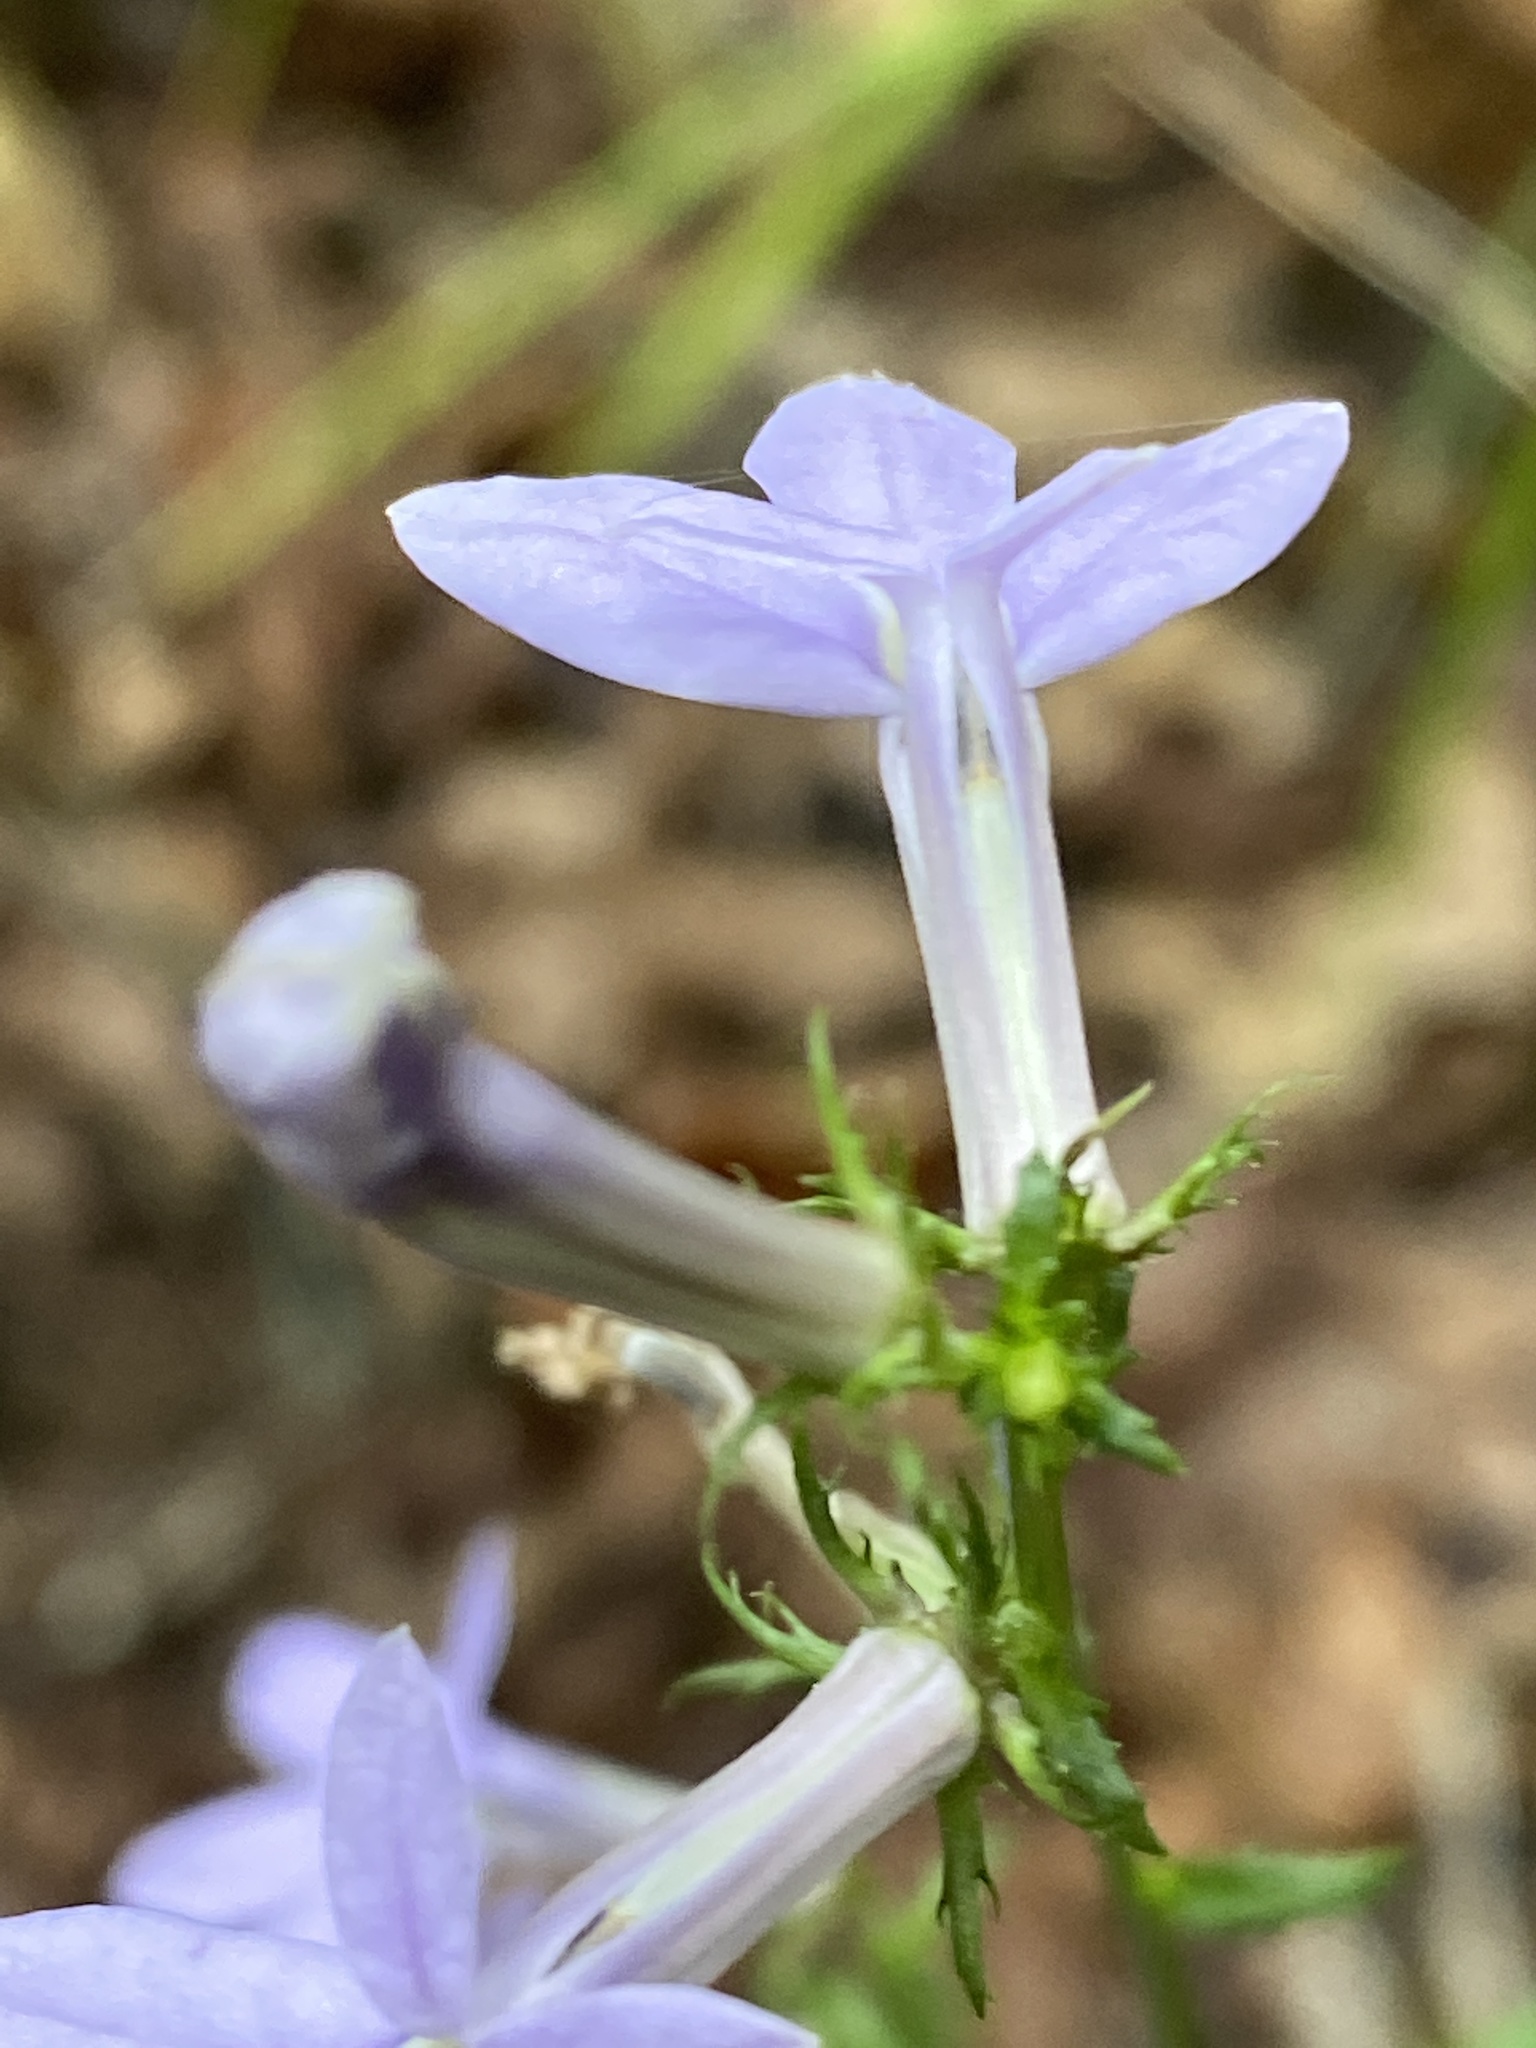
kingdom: Plantae
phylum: Tracheophyta
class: Magnoliopsida
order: Asterales
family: Campanulaceae
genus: Lobelia
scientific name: Lobelia georgiana
